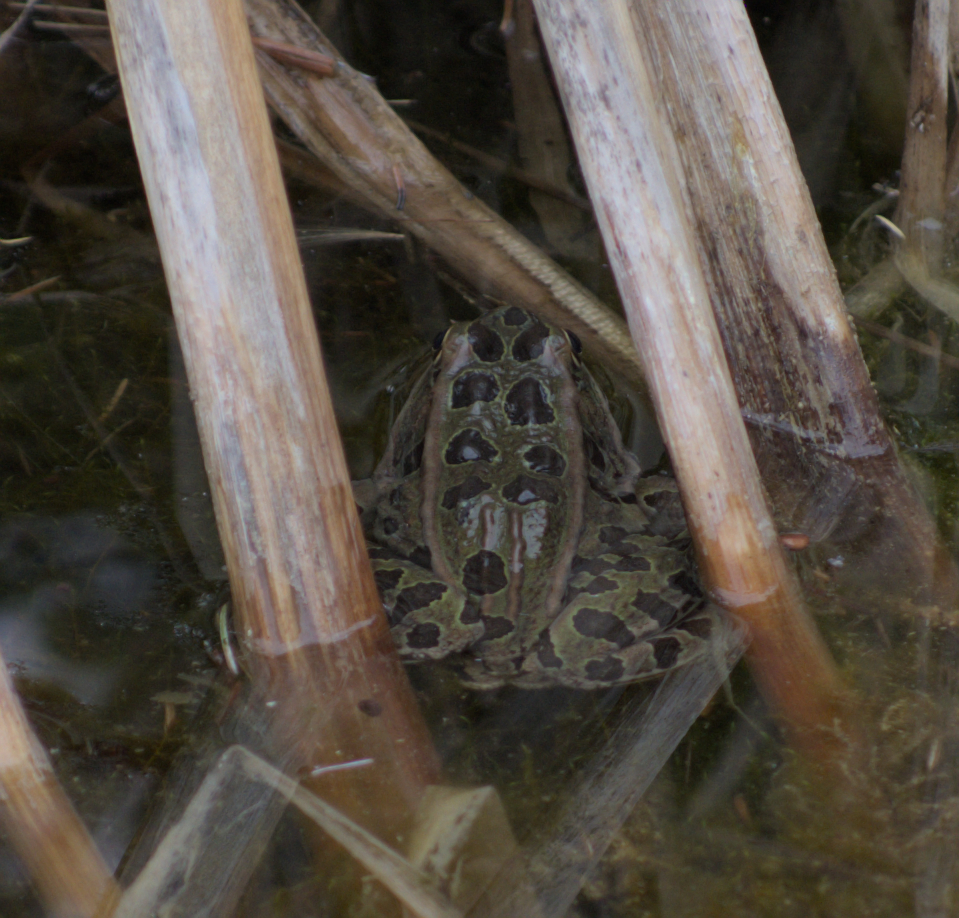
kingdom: Animalia
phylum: Chordata
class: Amphibia
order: Anura
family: Ranidae
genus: Lithobates
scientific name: Lithobates pipiens
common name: Northern leopard frog
